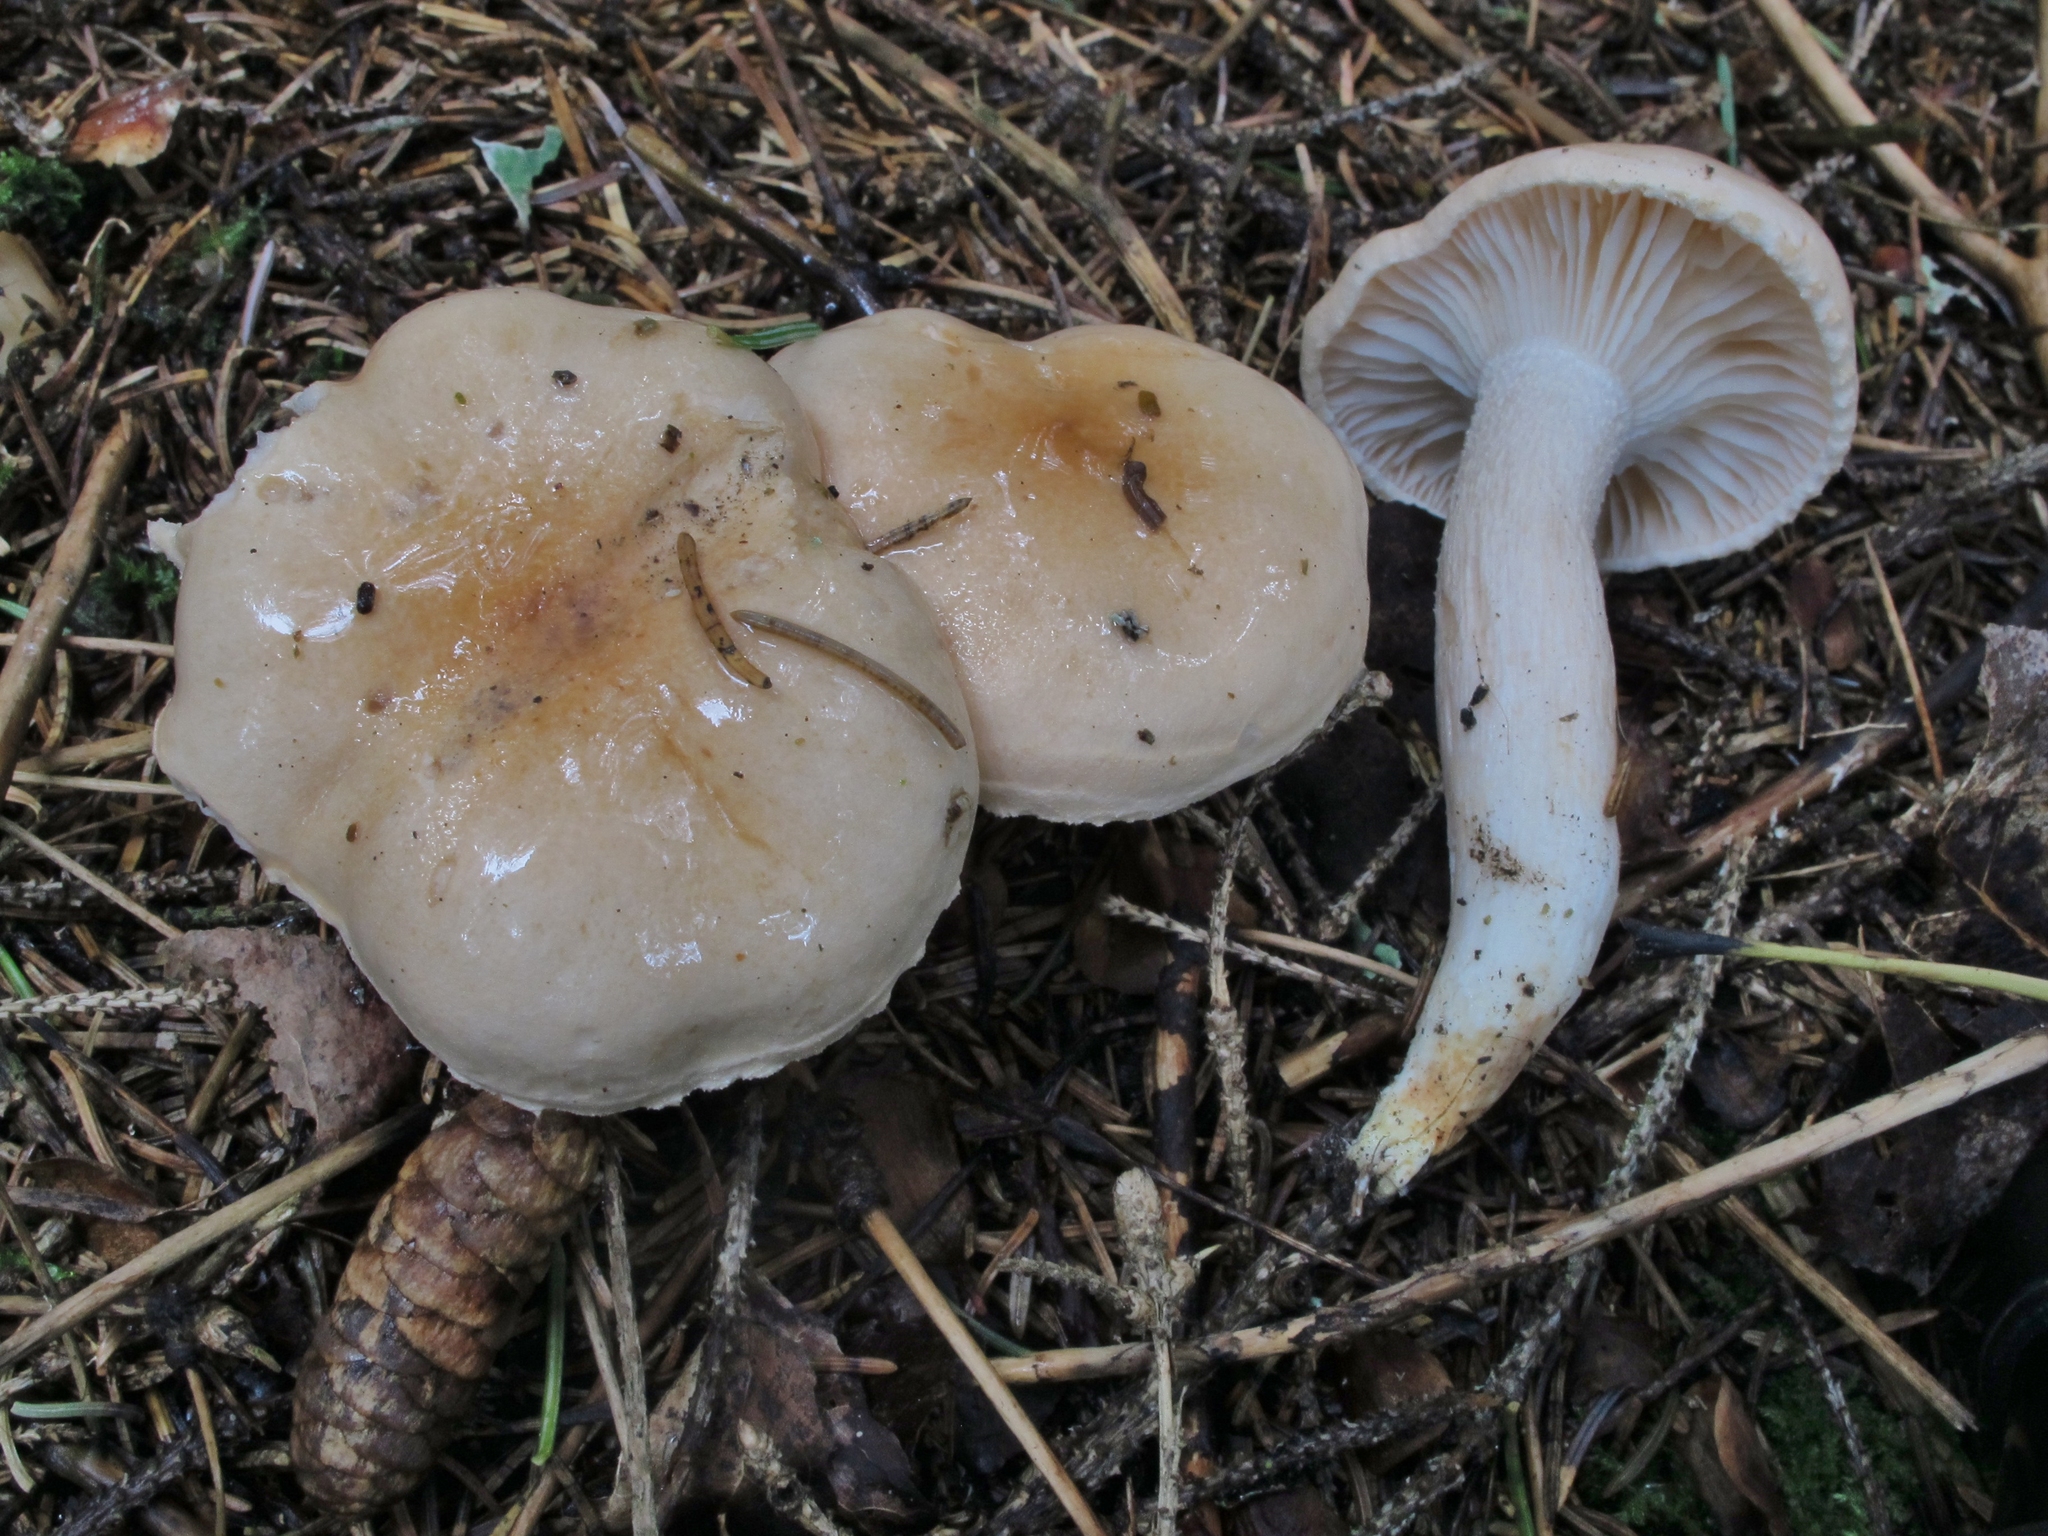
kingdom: Fungi
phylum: Basidiomycota
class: Agaricomycetes
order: Agaricales
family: Hygrophoraceae
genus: Hygrophorus
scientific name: Hygrophorus pudorinus
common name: Rosy woodwax
